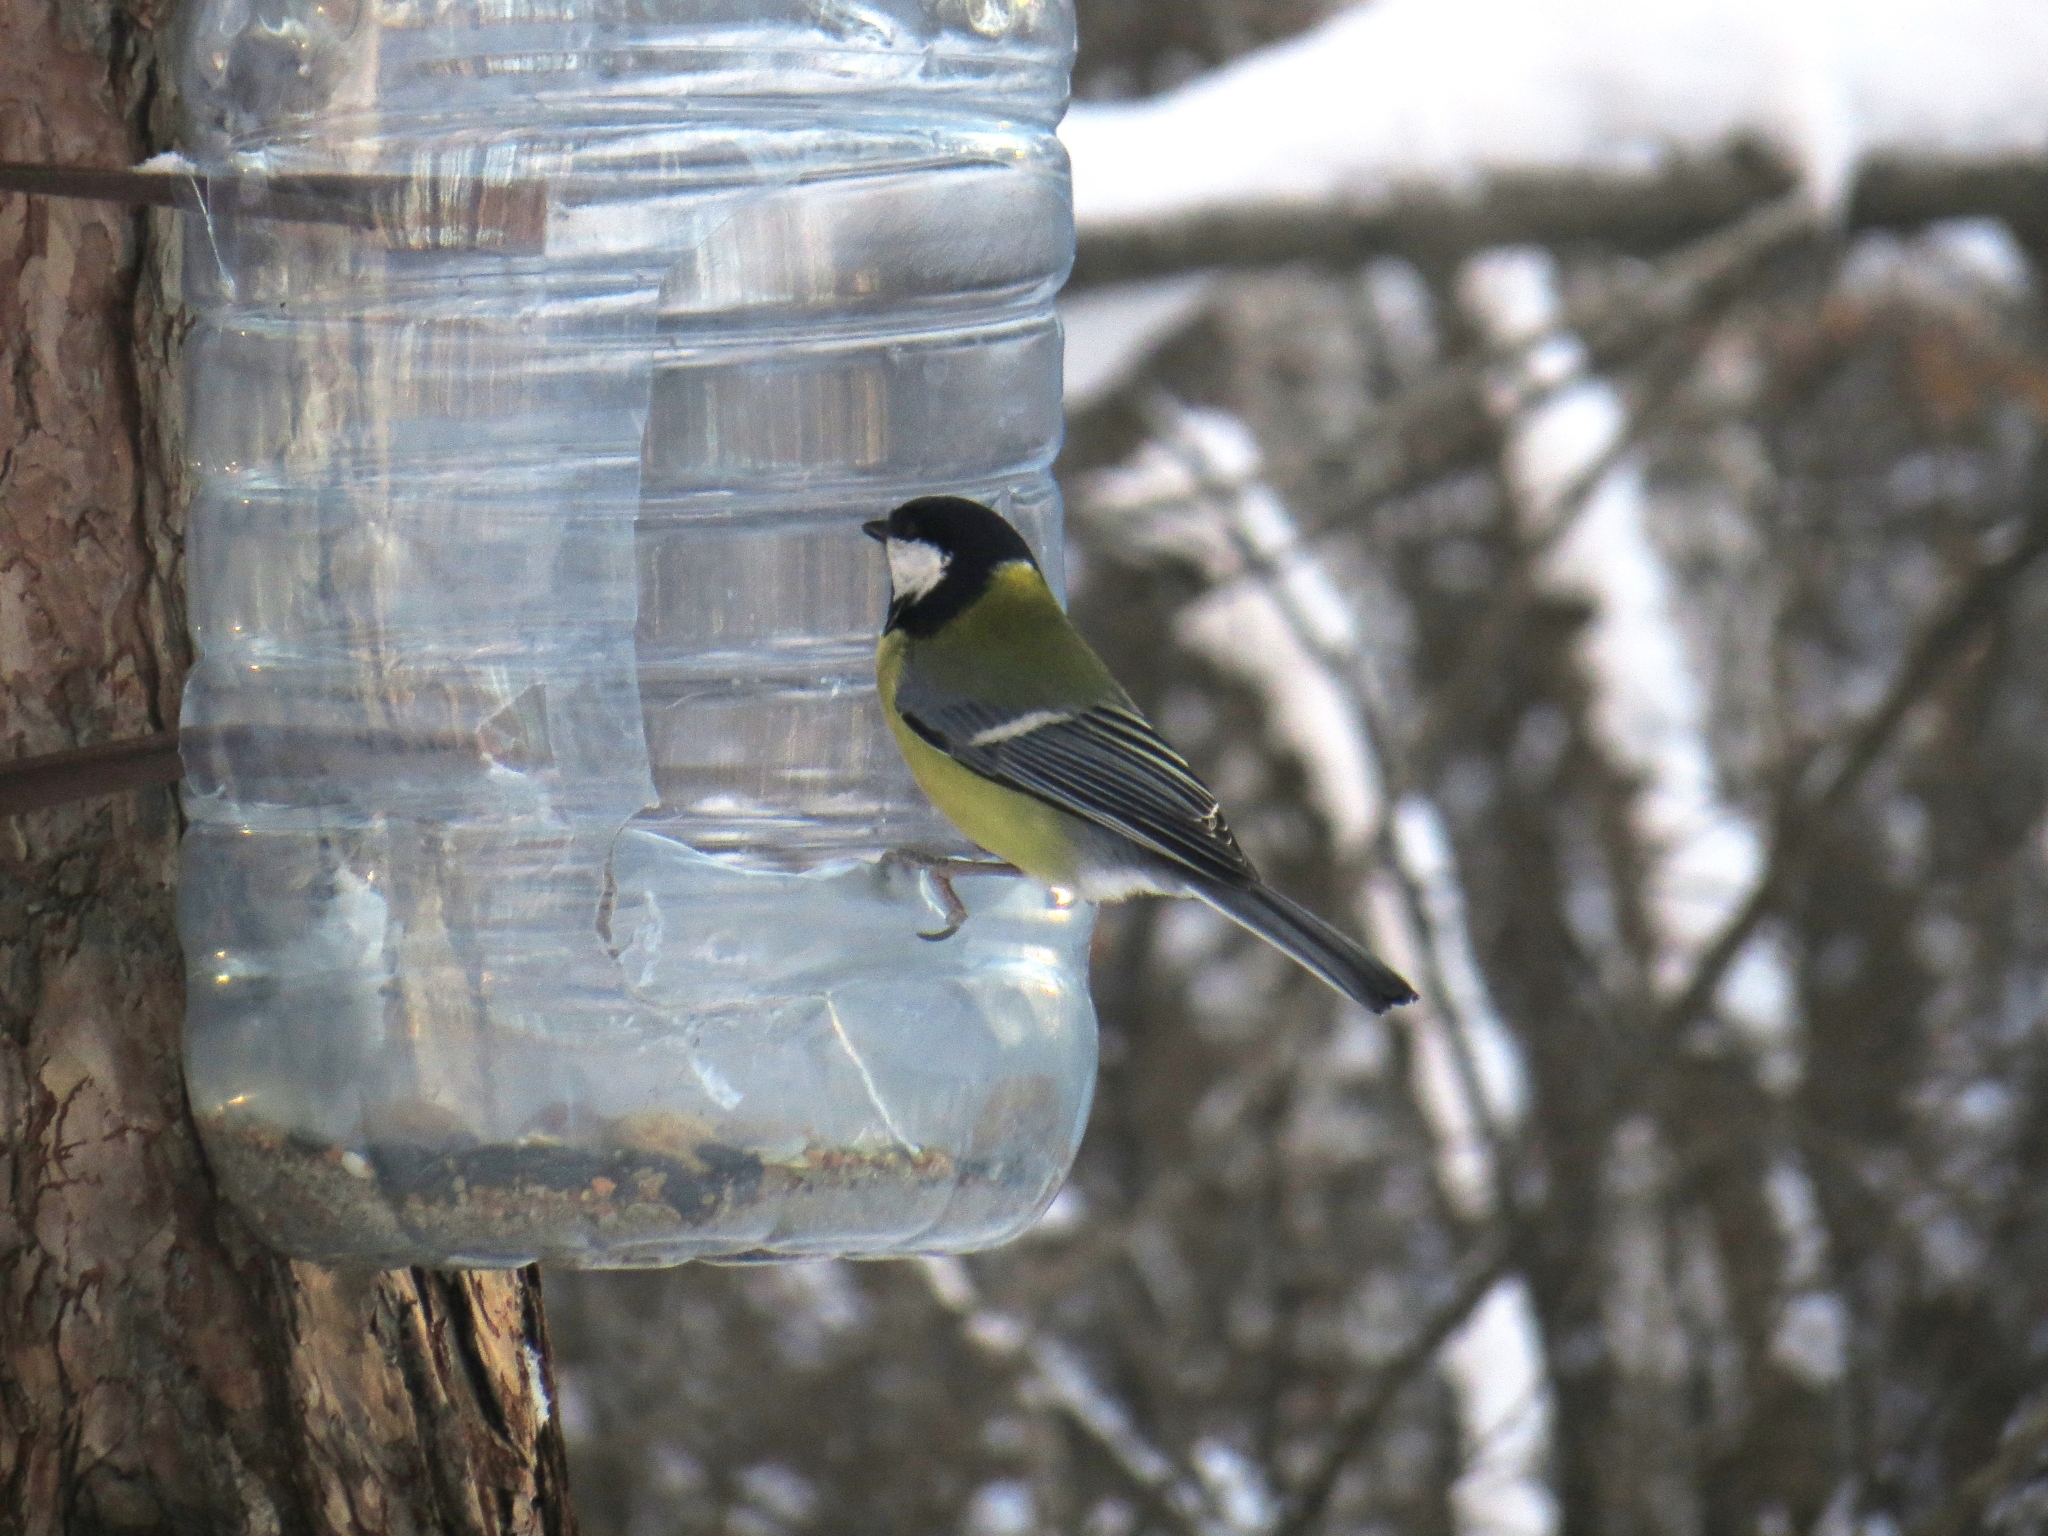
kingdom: Animalia
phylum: Chordata
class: Aves
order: Passeriformes
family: Paridae
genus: Parus
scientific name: Parus major
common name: Great tit
